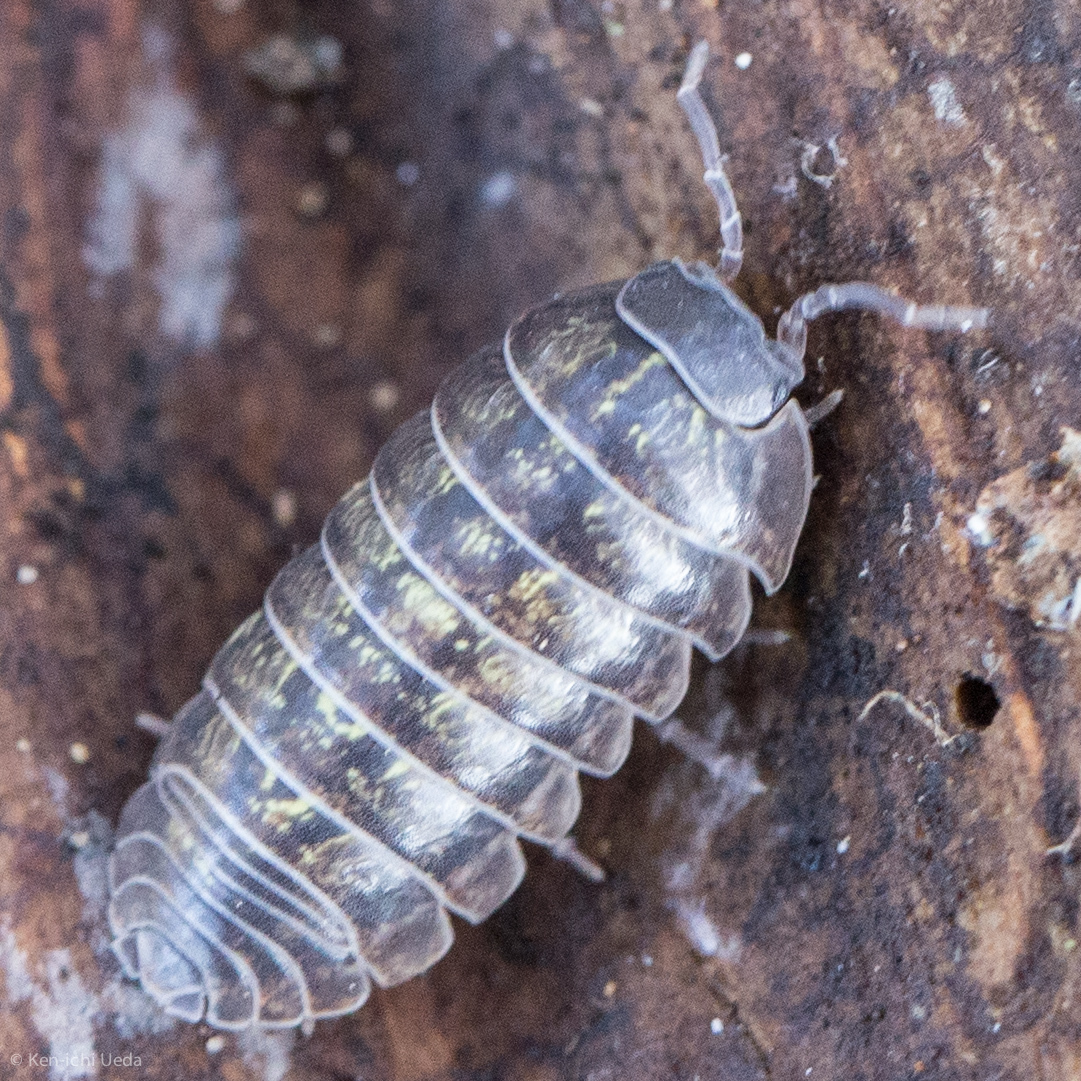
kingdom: Animalia
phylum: Arthropoda
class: Malacostraca
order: Isopoda
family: Armadillidiidae
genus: Armadillidium
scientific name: Armadillidium vulgare
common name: Common pill woodlouse
